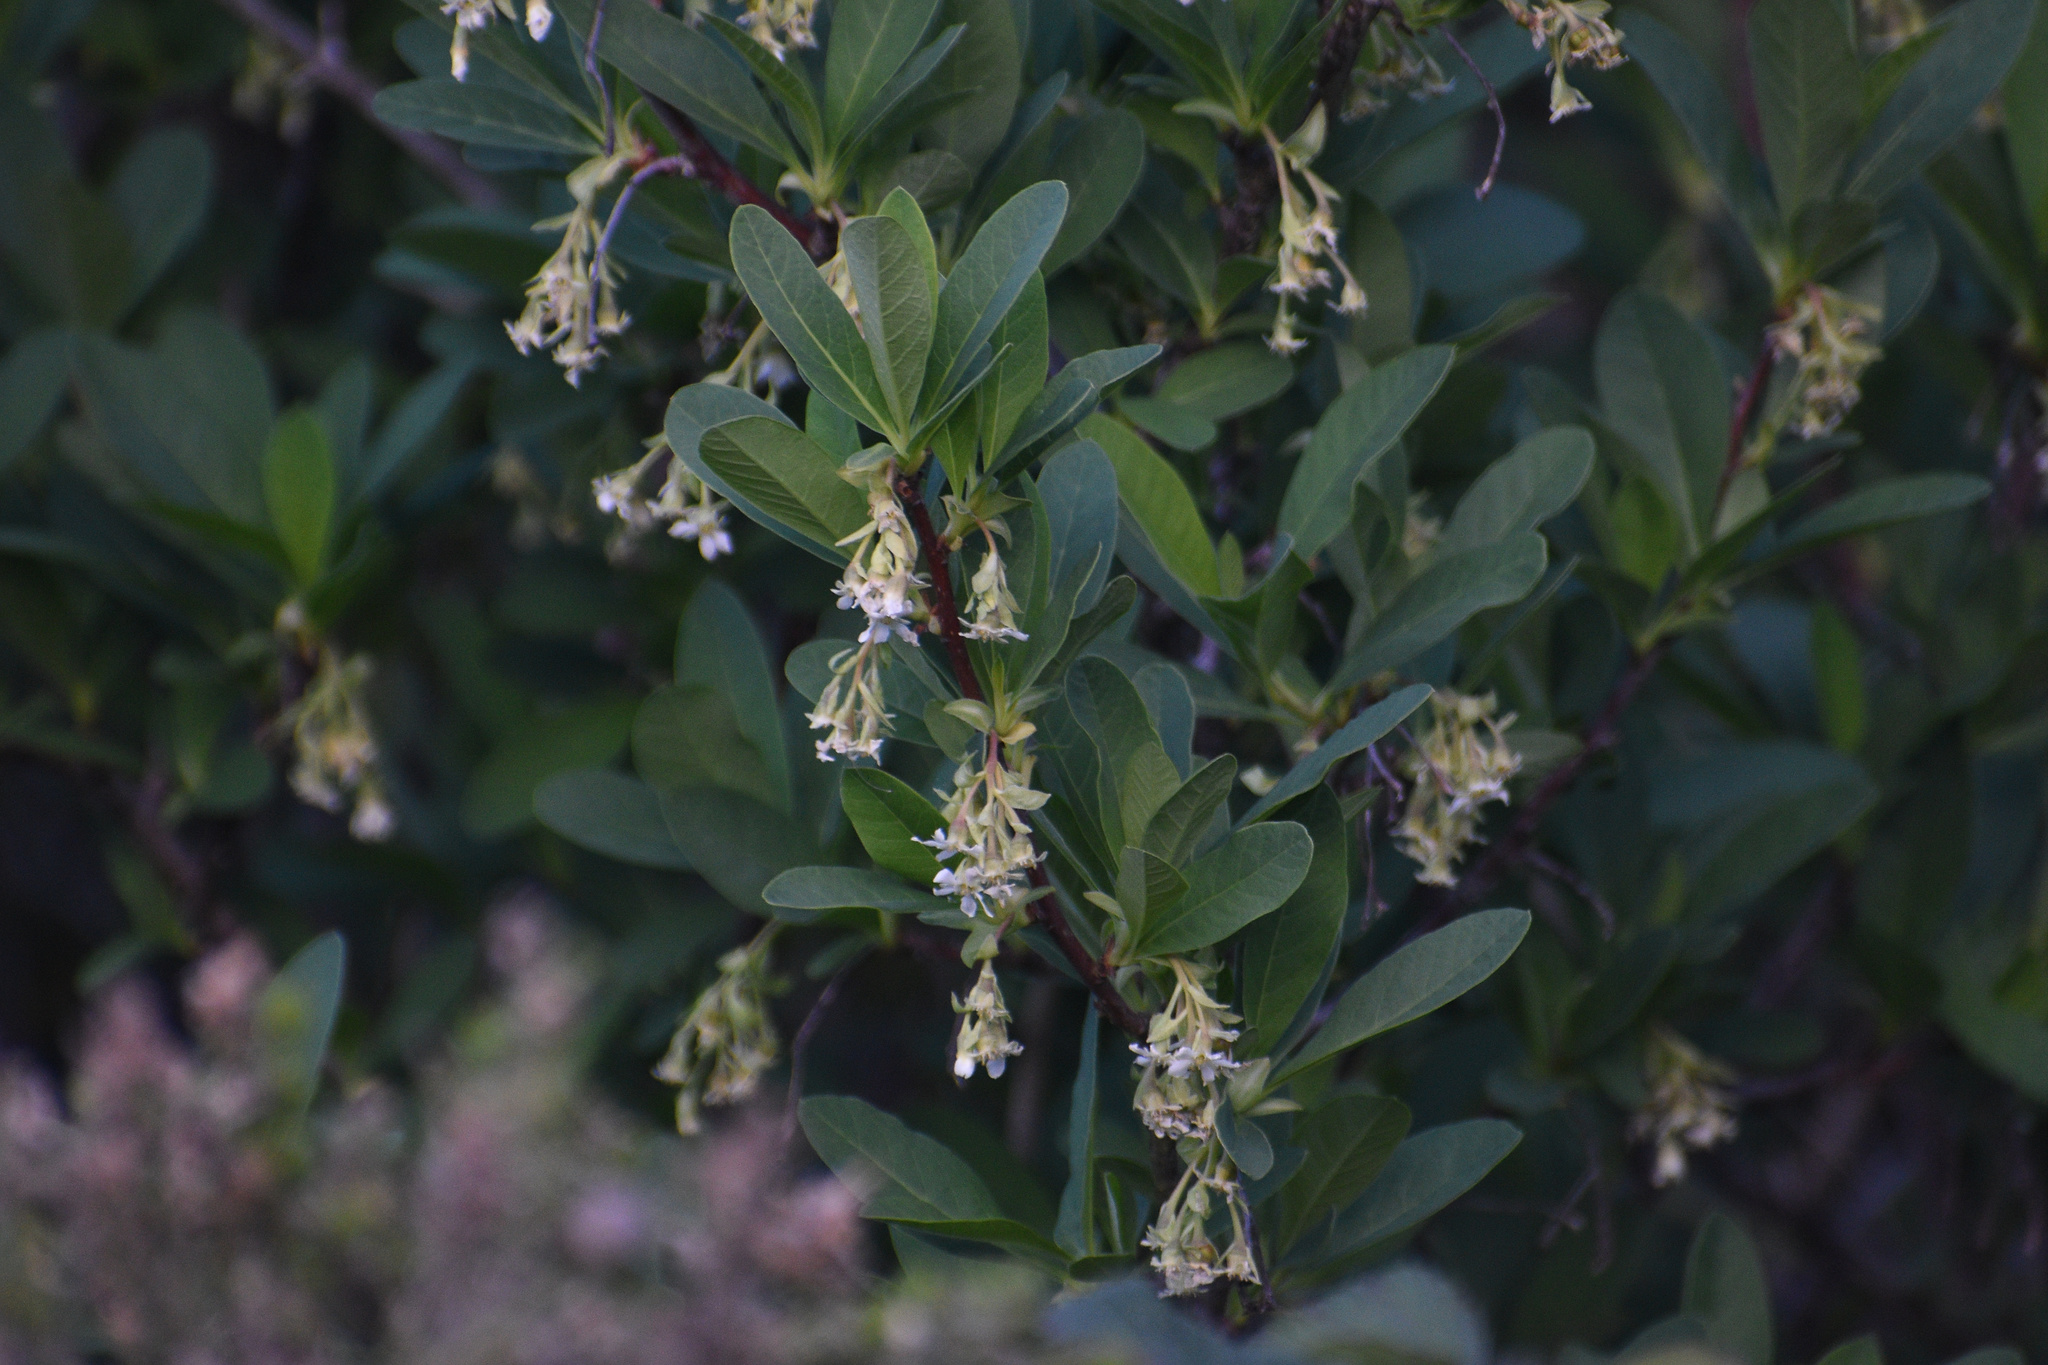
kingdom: Plantae
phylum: Tracheophyta
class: Magnoliopsida
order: Rosales
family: Rosaceae
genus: Oemleria
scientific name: Oemleria cerasiformis
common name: Osoberry
